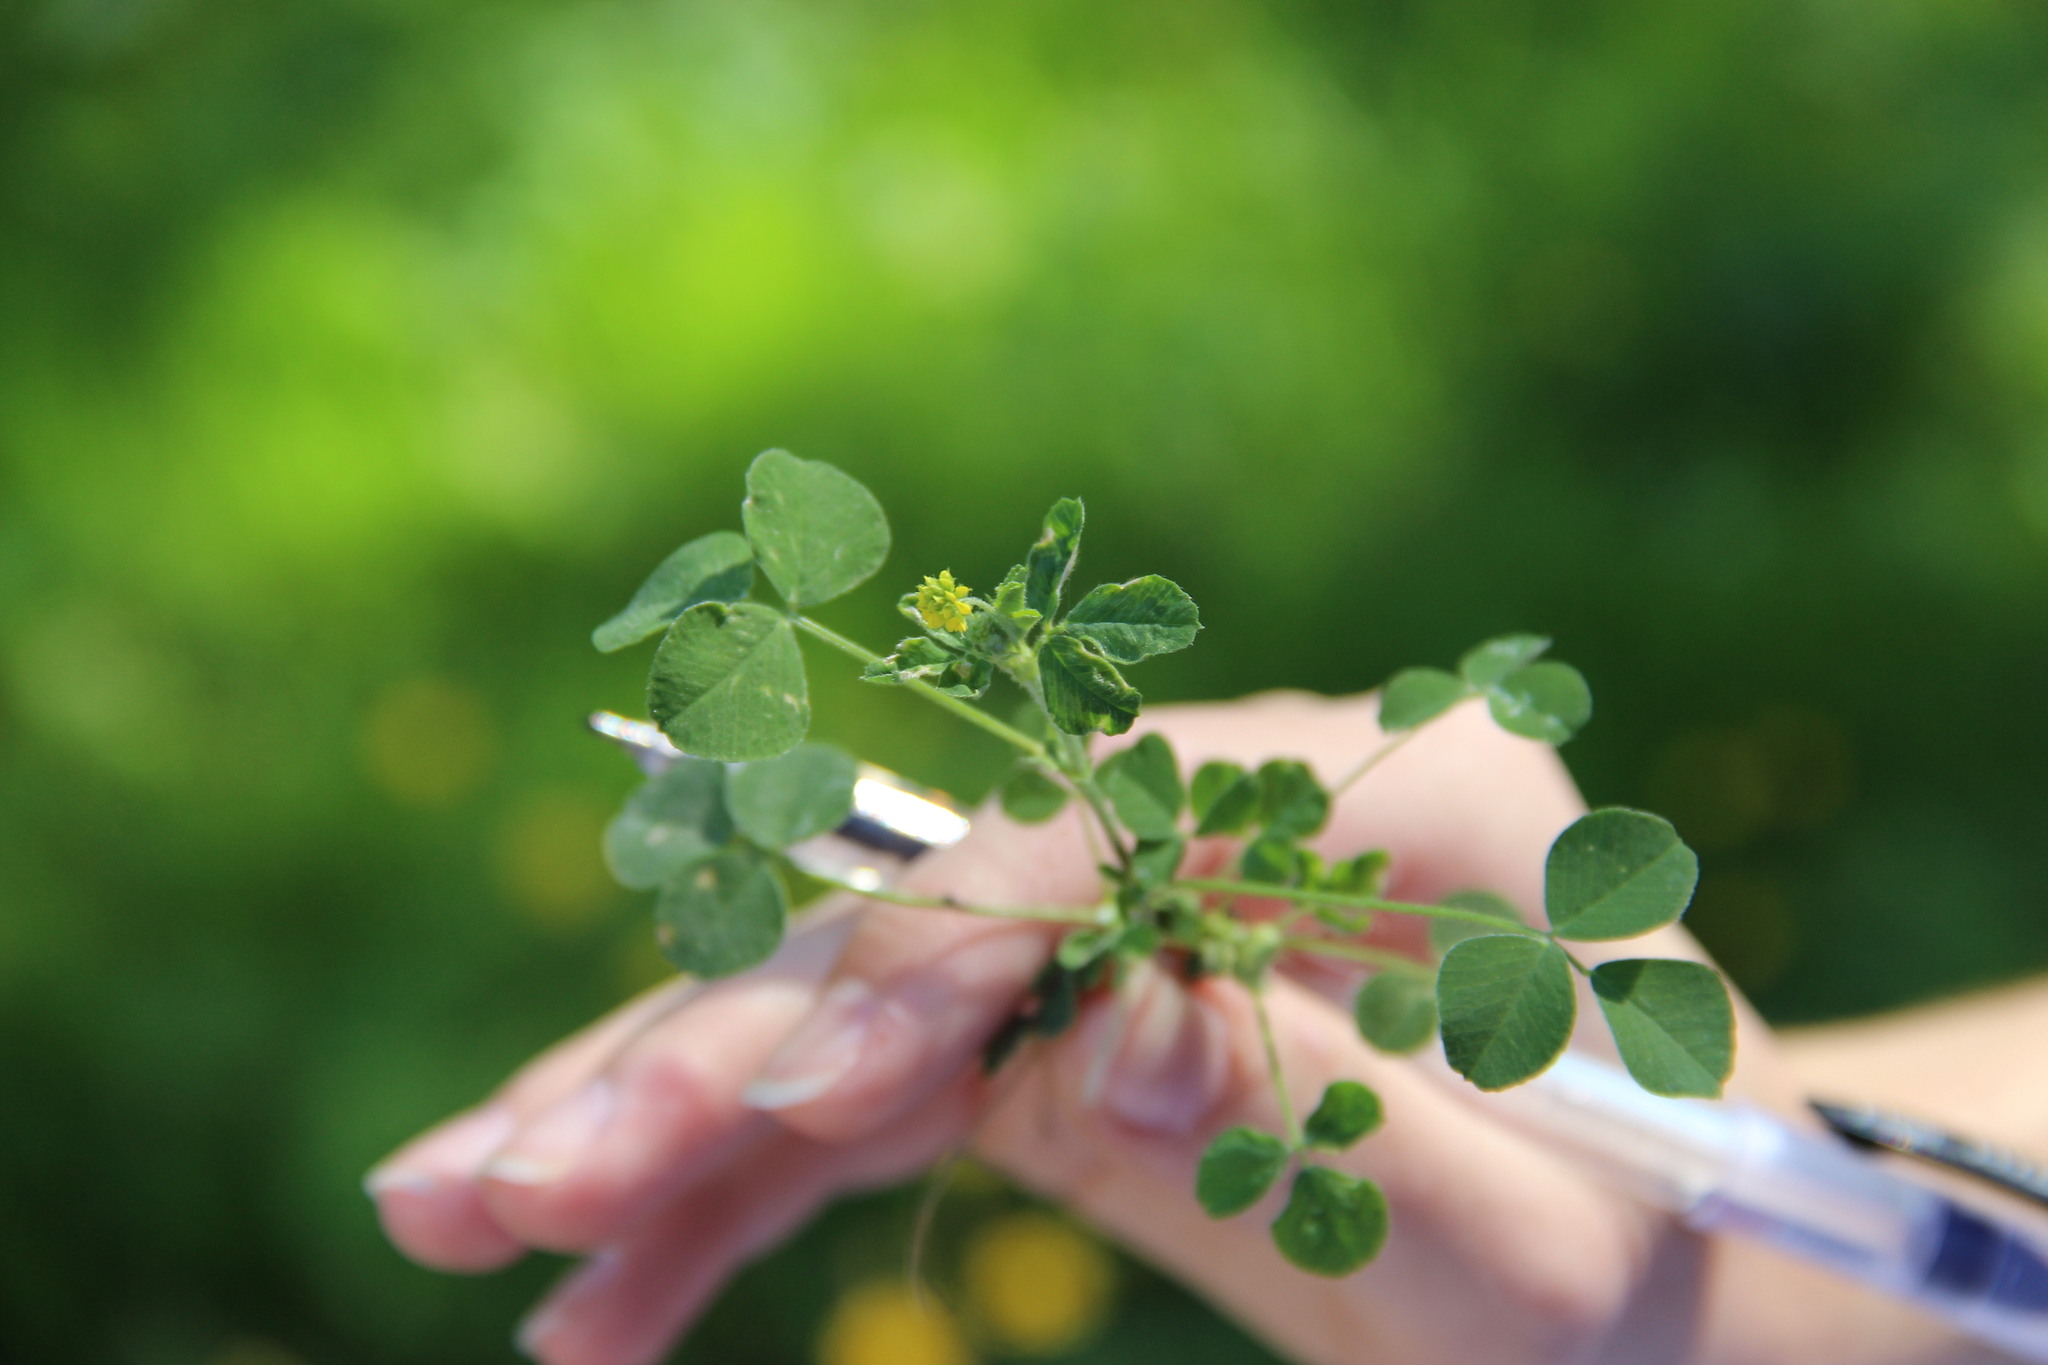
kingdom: Plantae
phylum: Tracheophyta
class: Magnoliopsida
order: Fabales
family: Fabaceae
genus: Medicago
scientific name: Medicago lupulina
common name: Black medick
